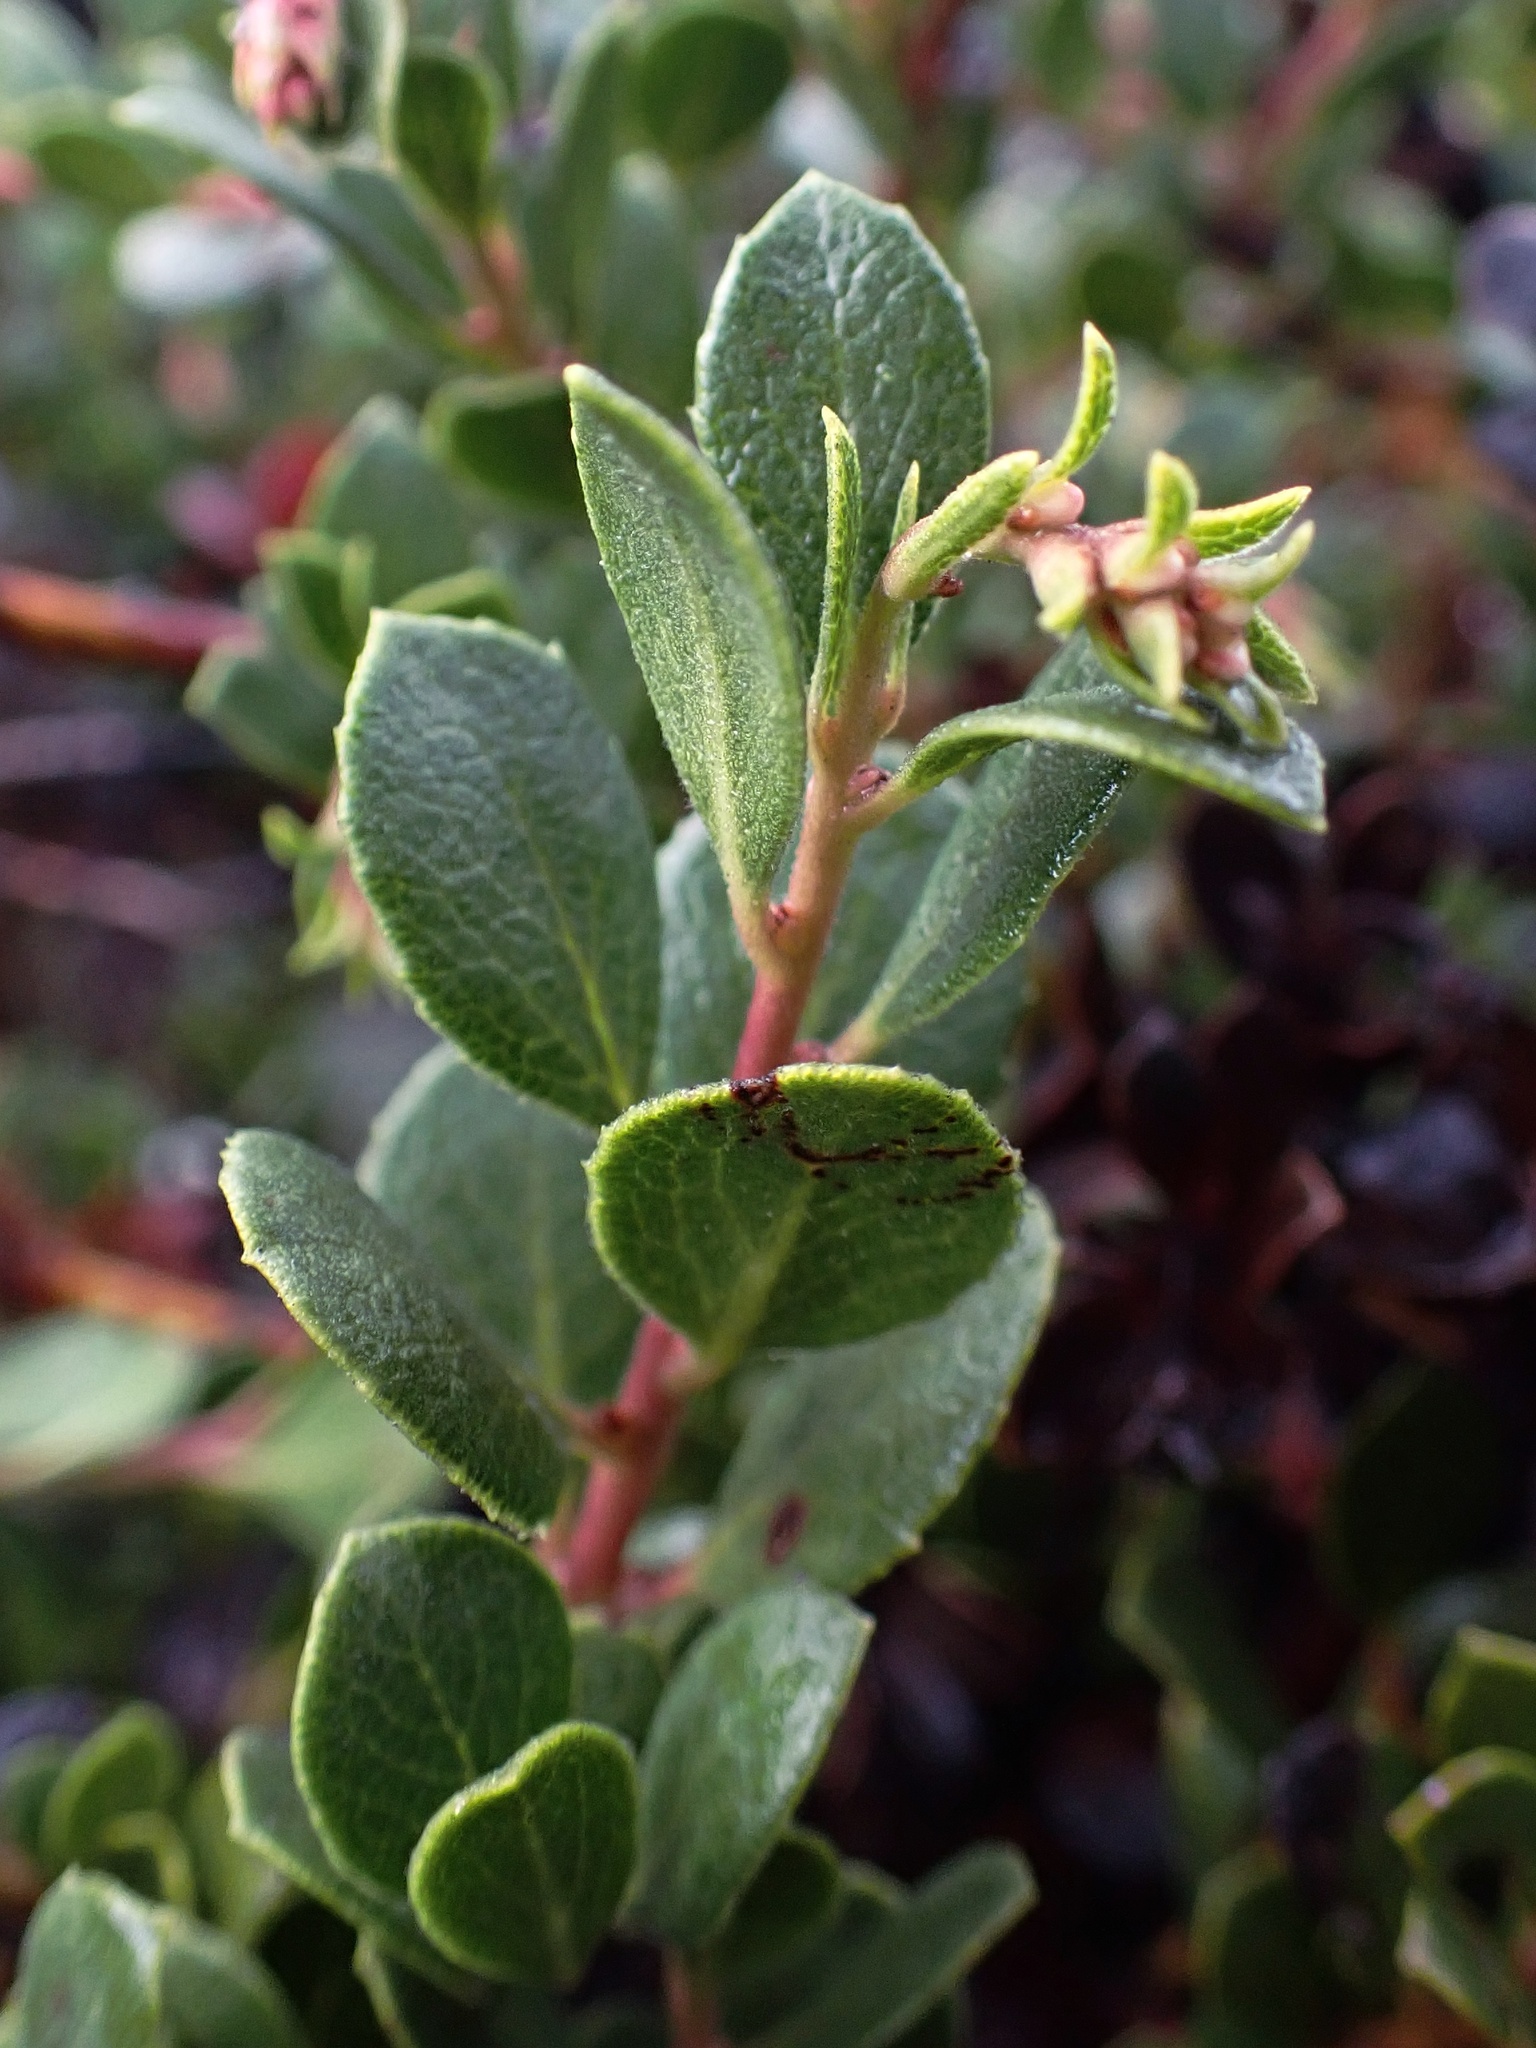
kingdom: Plantae
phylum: Tracheophyta
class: Magnoliopsida
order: Ericales
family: Ericaceae
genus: Arctostaphylos
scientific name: Arctostaphylos pacifica
